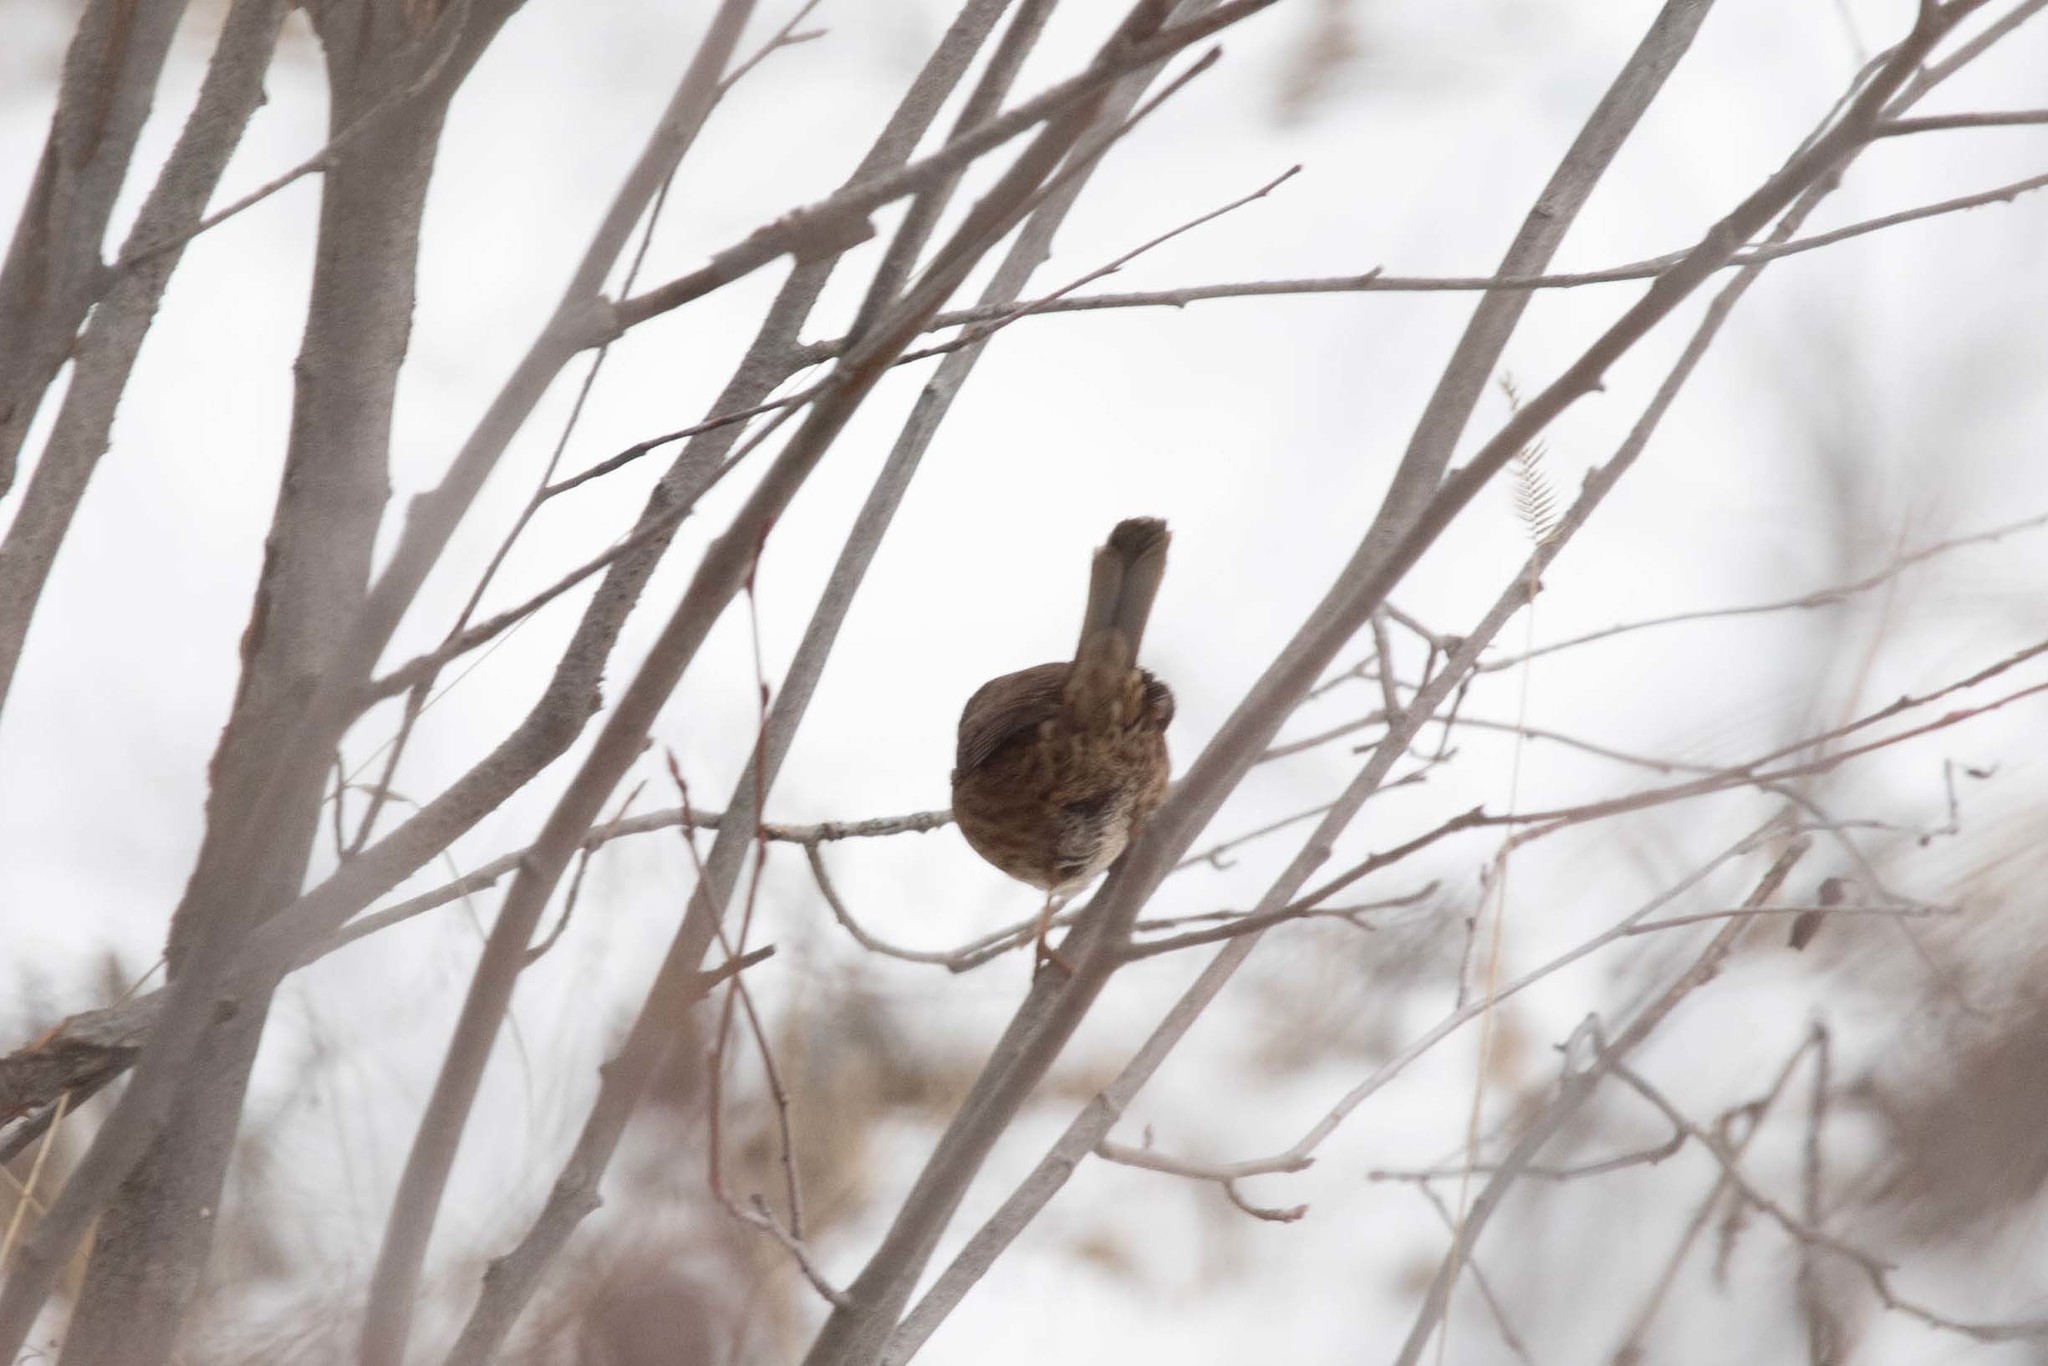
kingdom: Animalia
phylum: Chordata
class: Aves
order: Passeriformes
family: Passerellidae
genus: Melospiza
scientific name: Melospiza melodia
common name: Song sparrow
